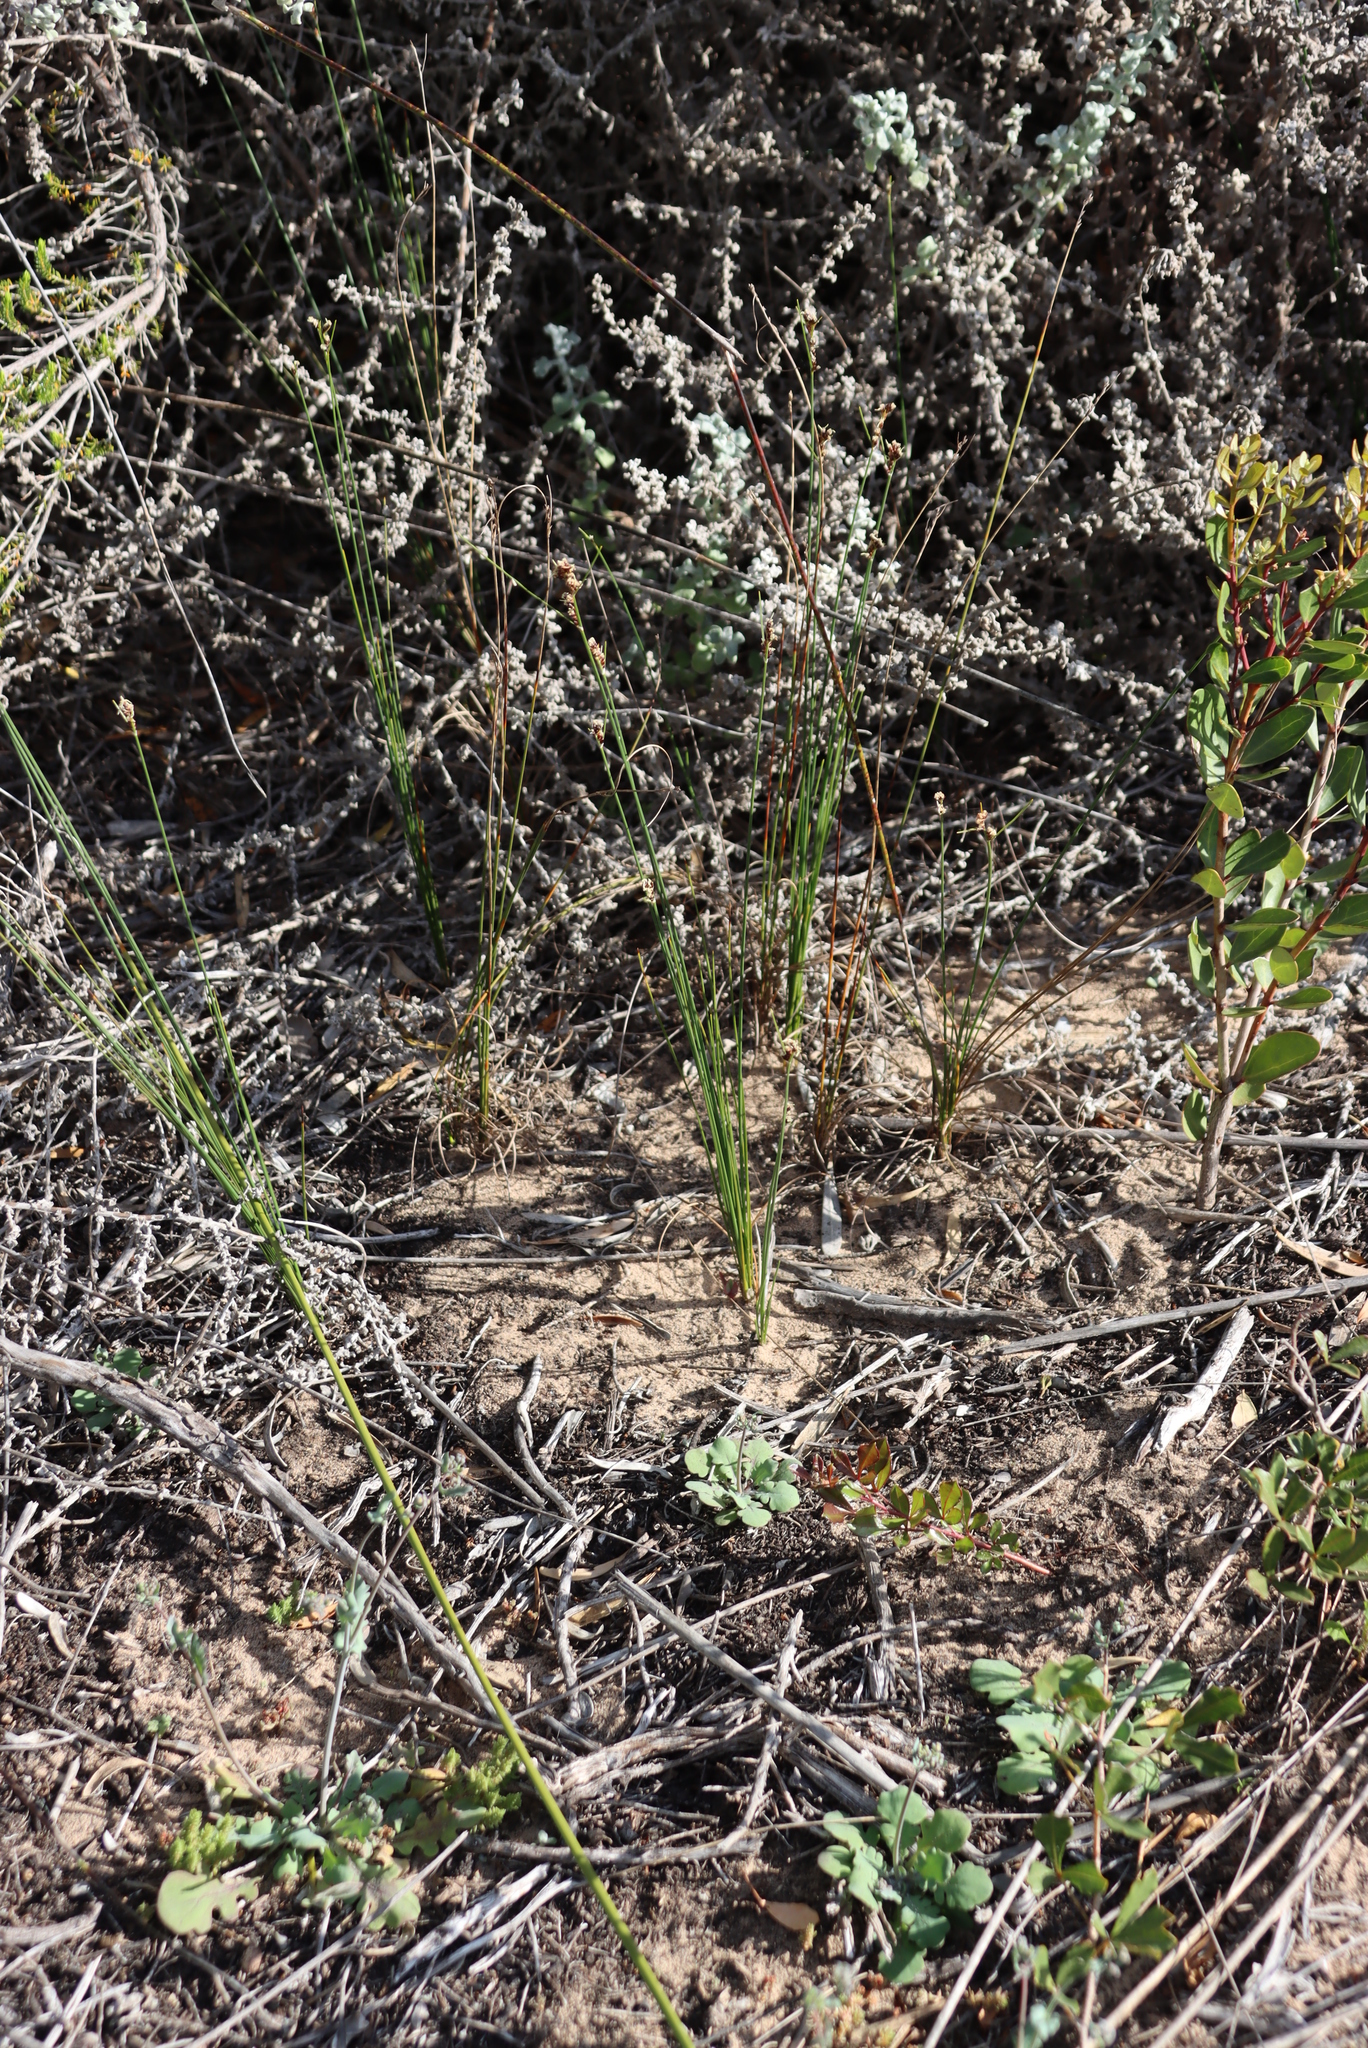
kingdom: Plantae
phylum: Tracheophyta
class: Liliopsida
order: Poales
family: Cyperaceae
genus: Ficinia
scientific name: Ficinia secunda
